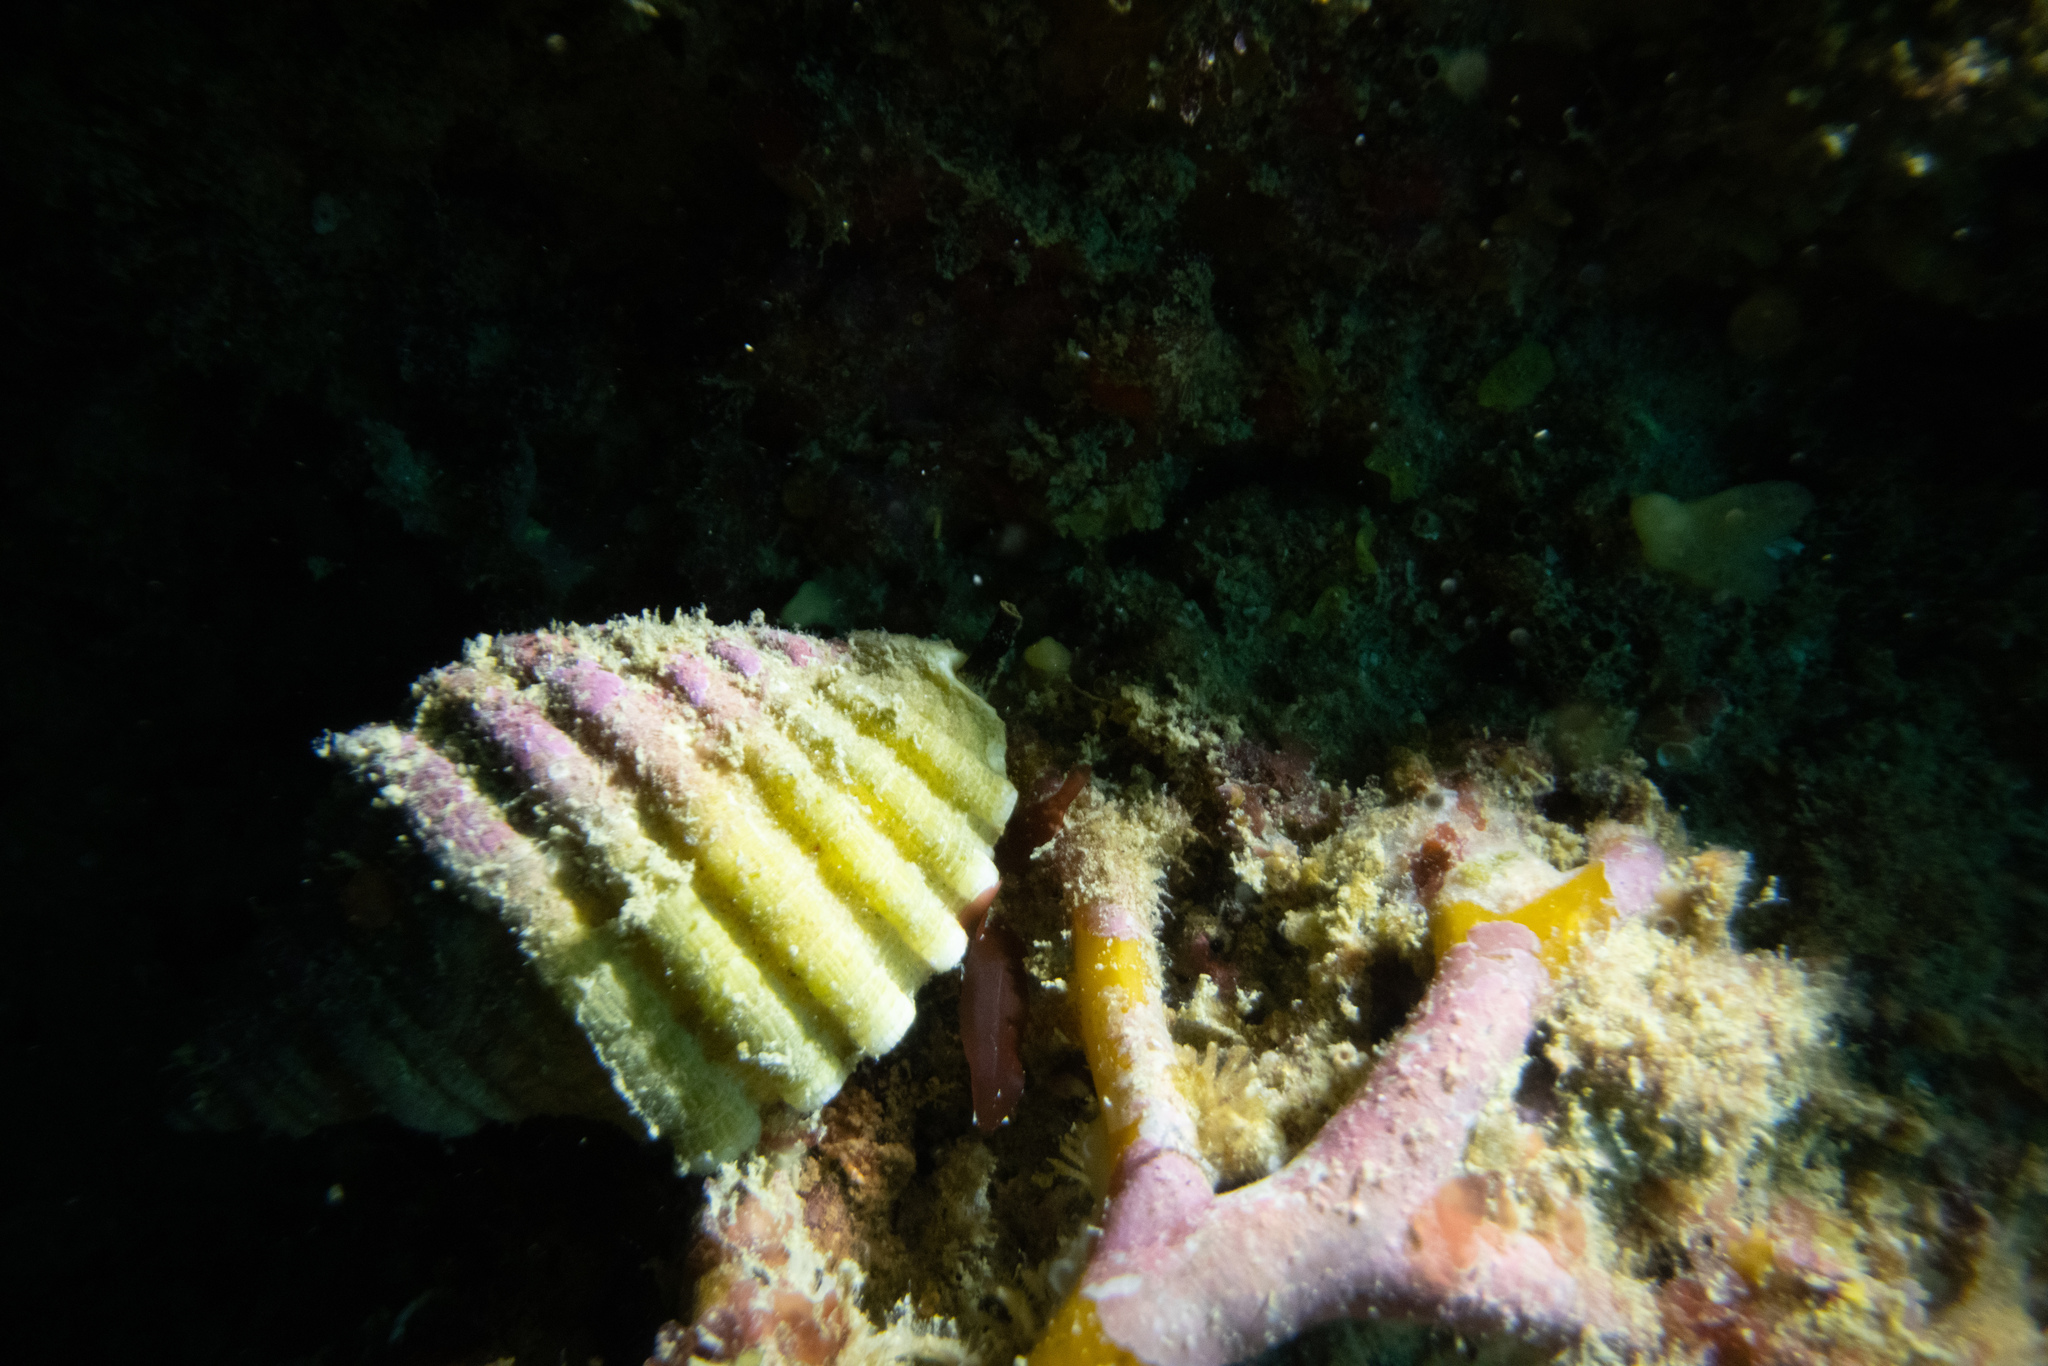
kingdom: Animalia
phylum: Mollusca
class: Gastropoda
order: Neogastropoda
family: Muricidae
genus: Dicathais
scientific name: Dicathais orbita
